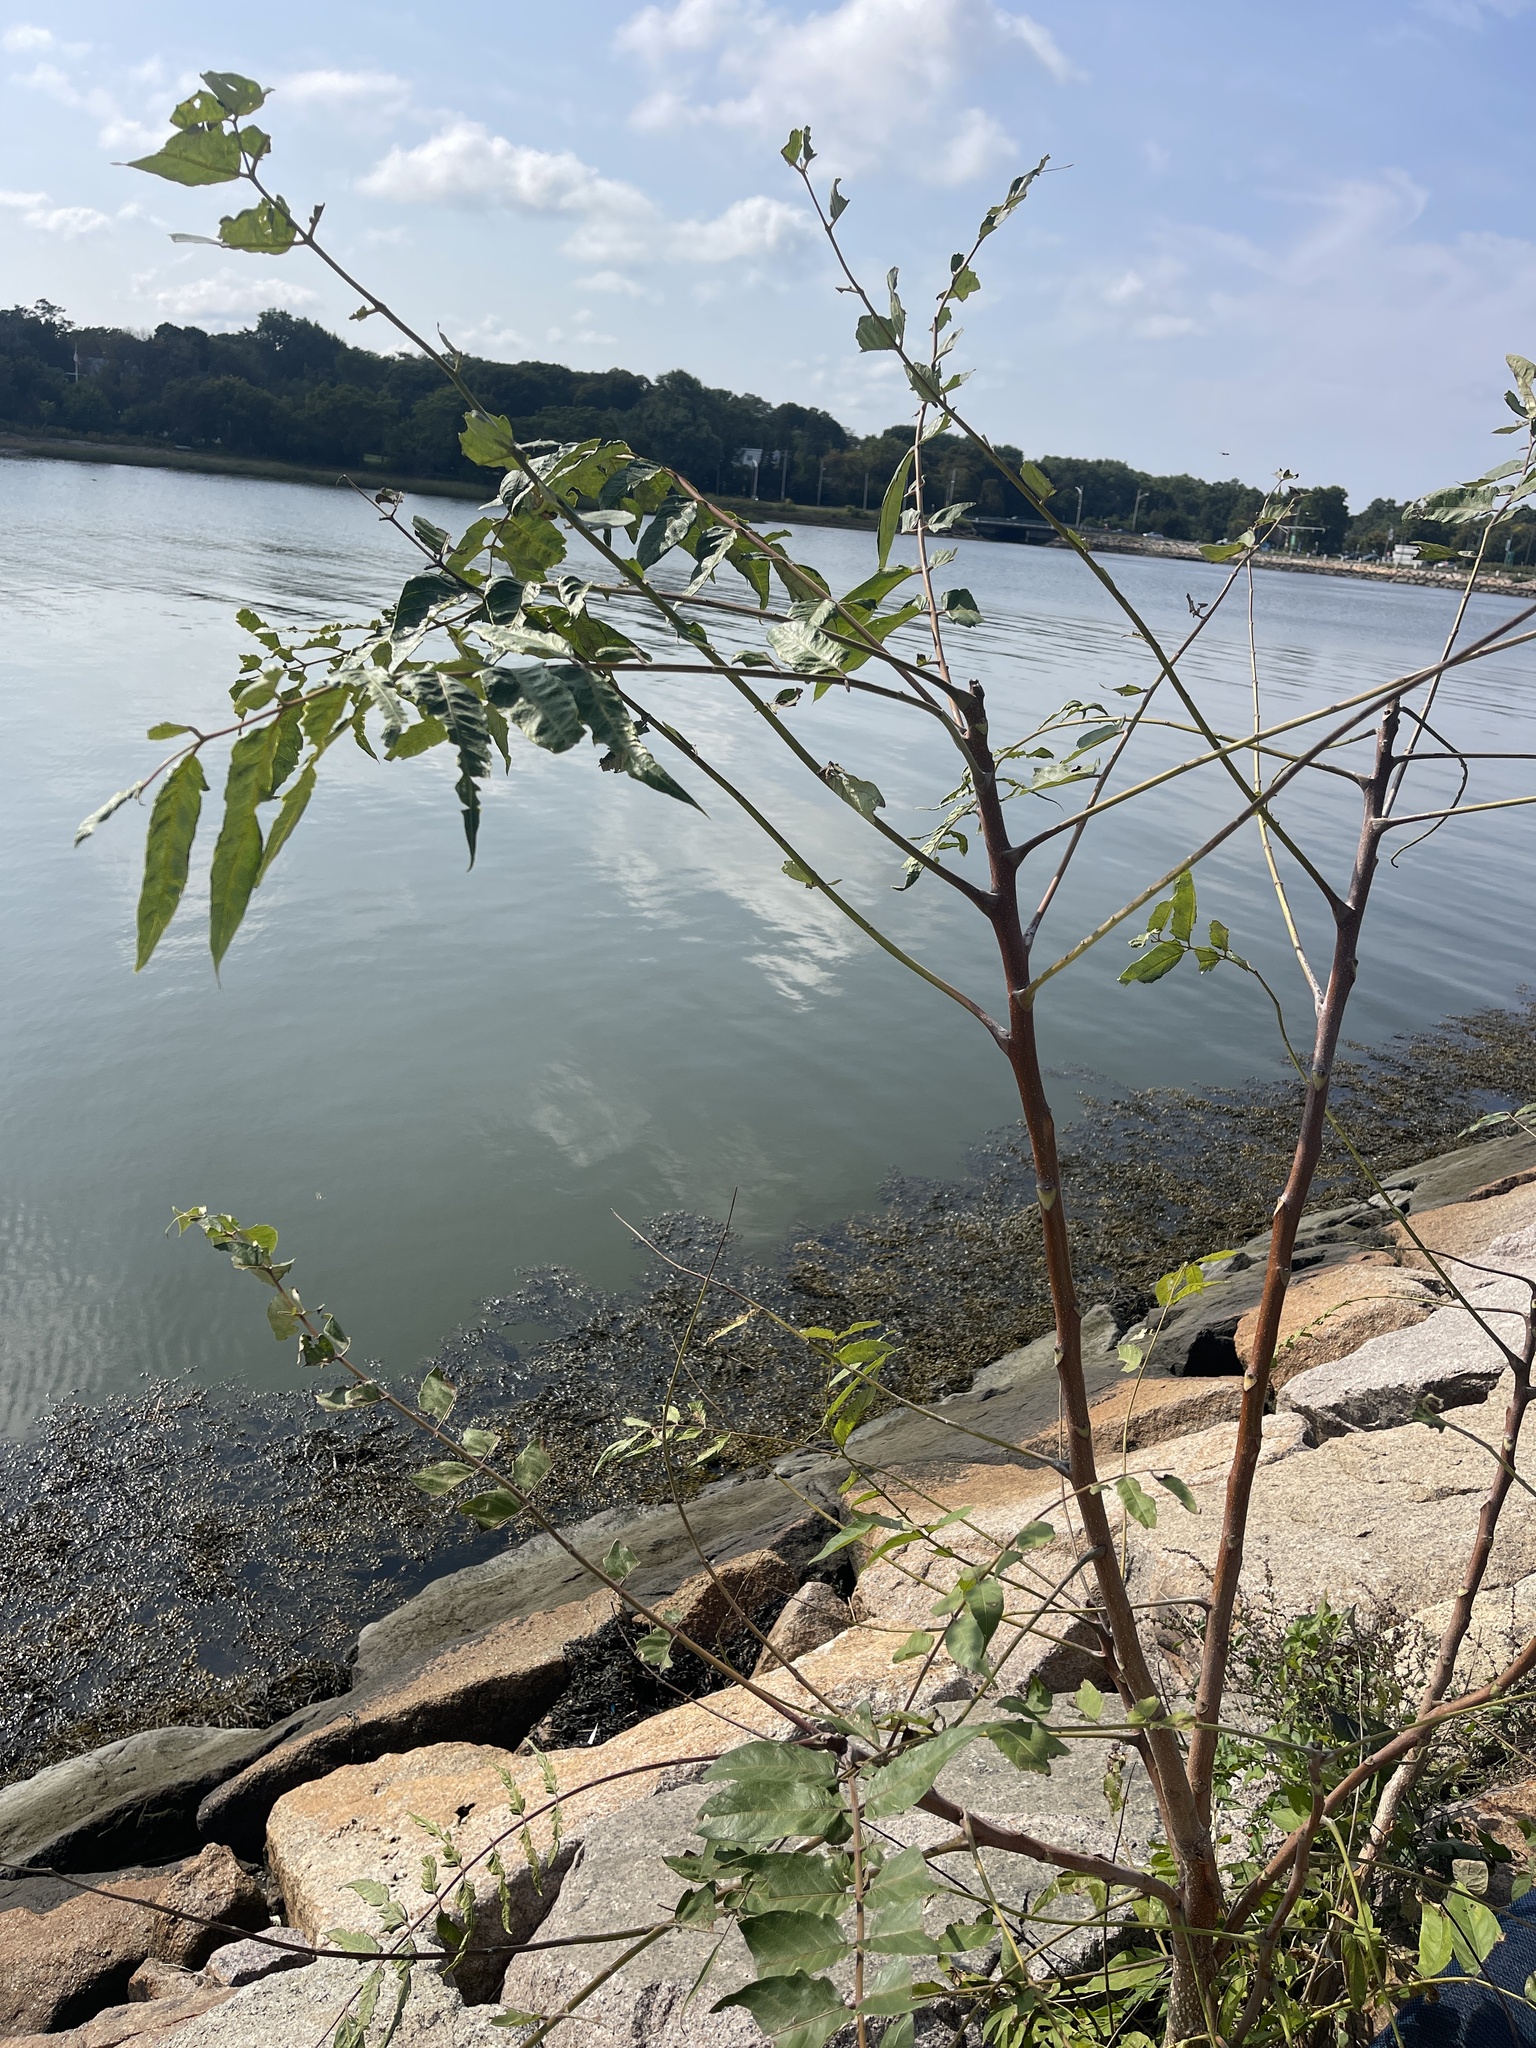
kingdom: Plantae
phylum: Tracheophyta
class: Magnoliopsida
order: Sapindales
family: Simaroubaceae
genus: Ailanthus
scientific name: Ailanthus altissima
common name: Tree-of-heaven
